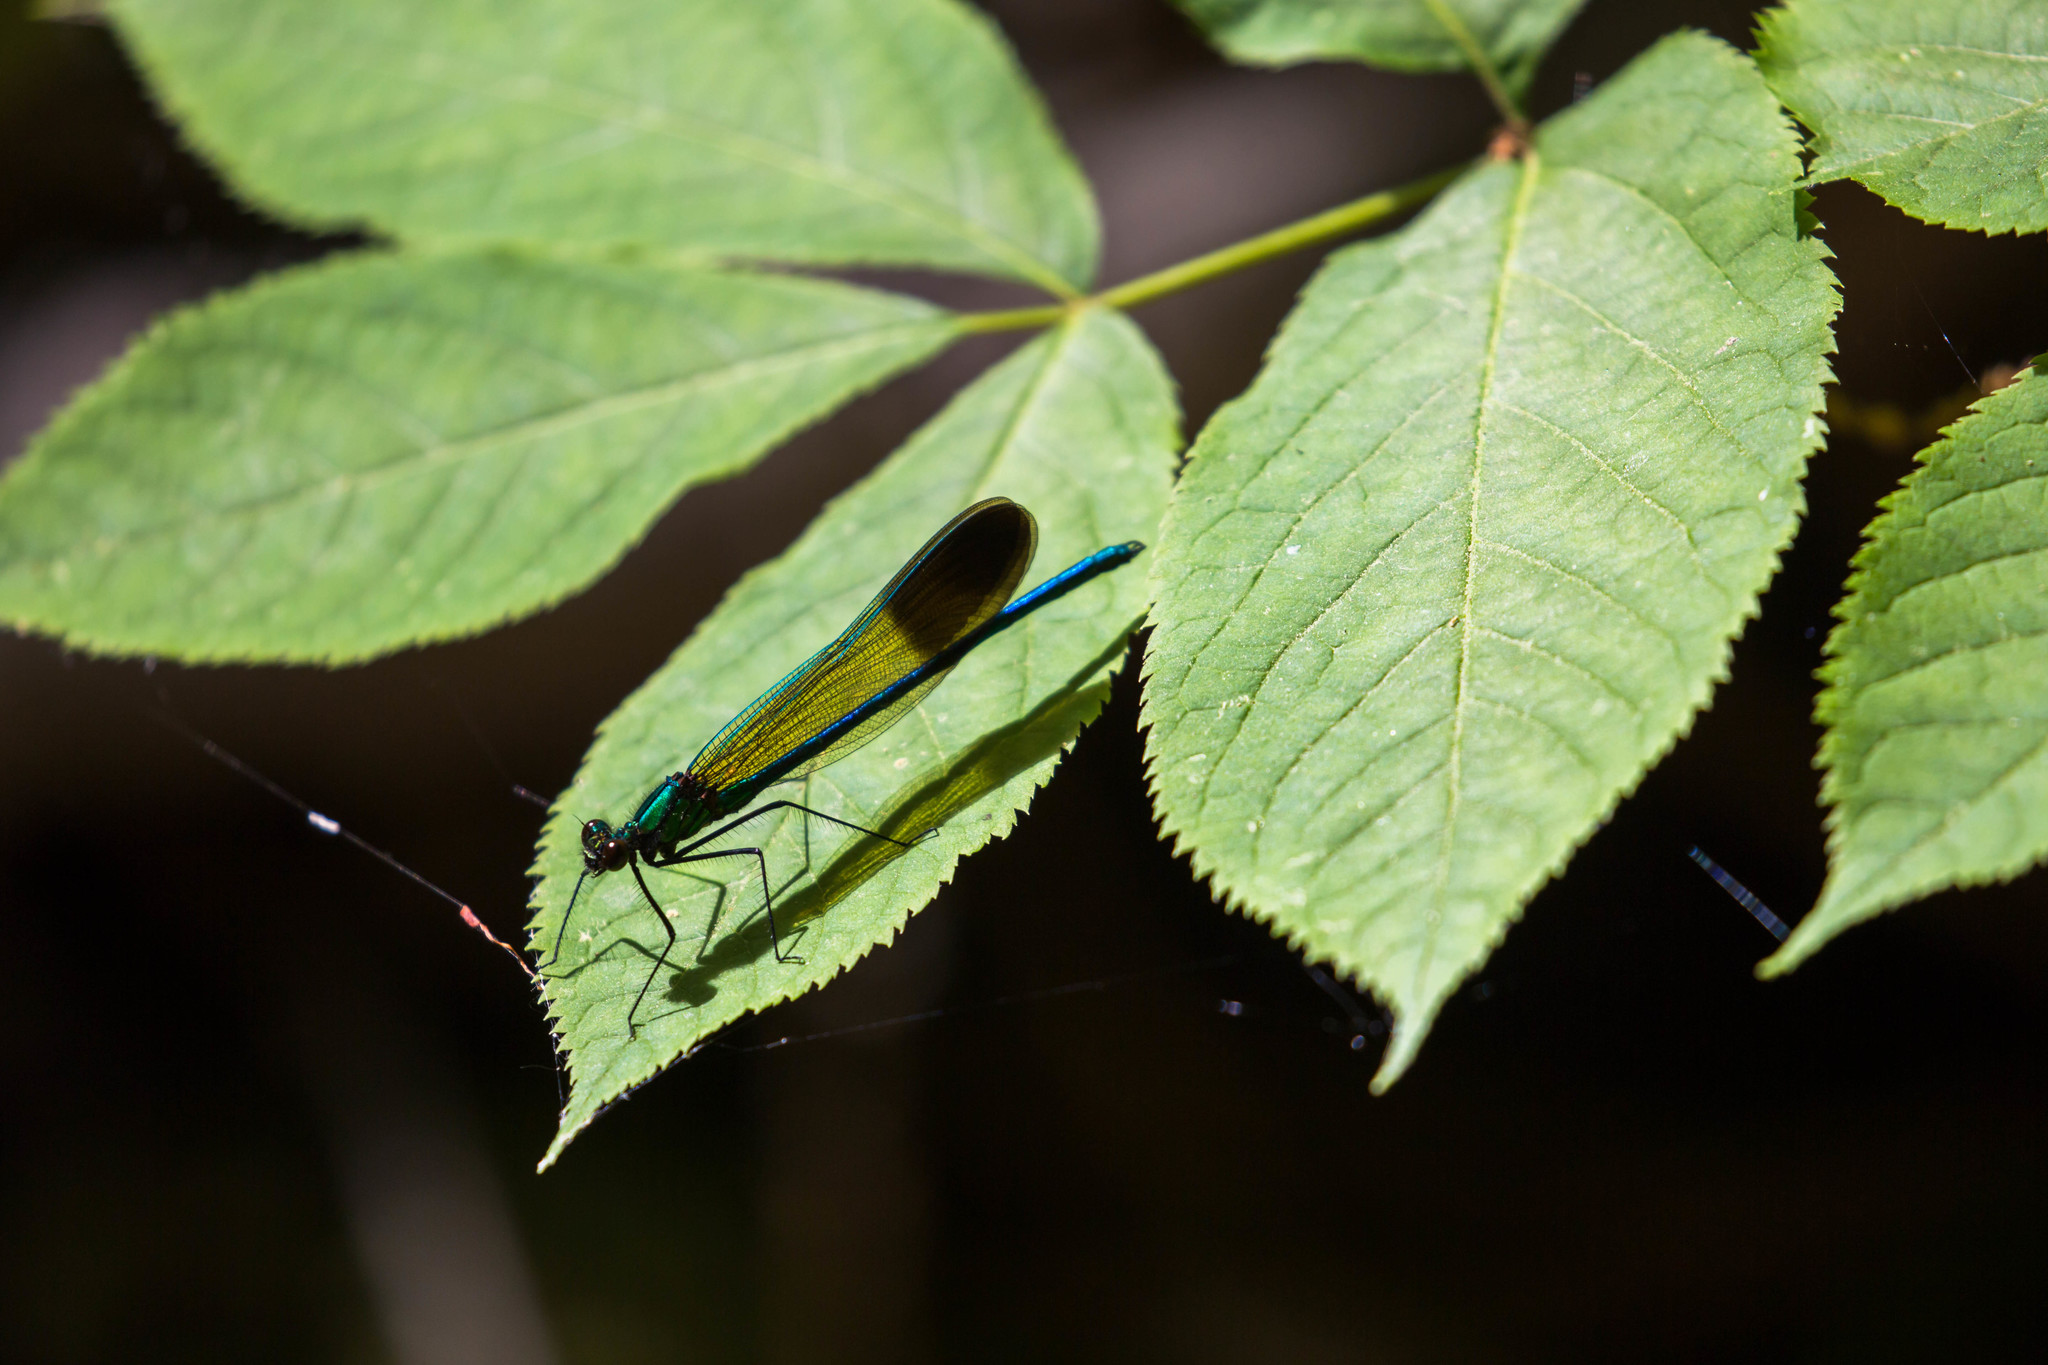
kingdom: Animalia
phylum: Arthropoda
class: Insecta
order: Odonata
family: Calopterygidae
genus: Calopteryx
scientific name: Calopteryx aequabilis
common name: River jewelwing
